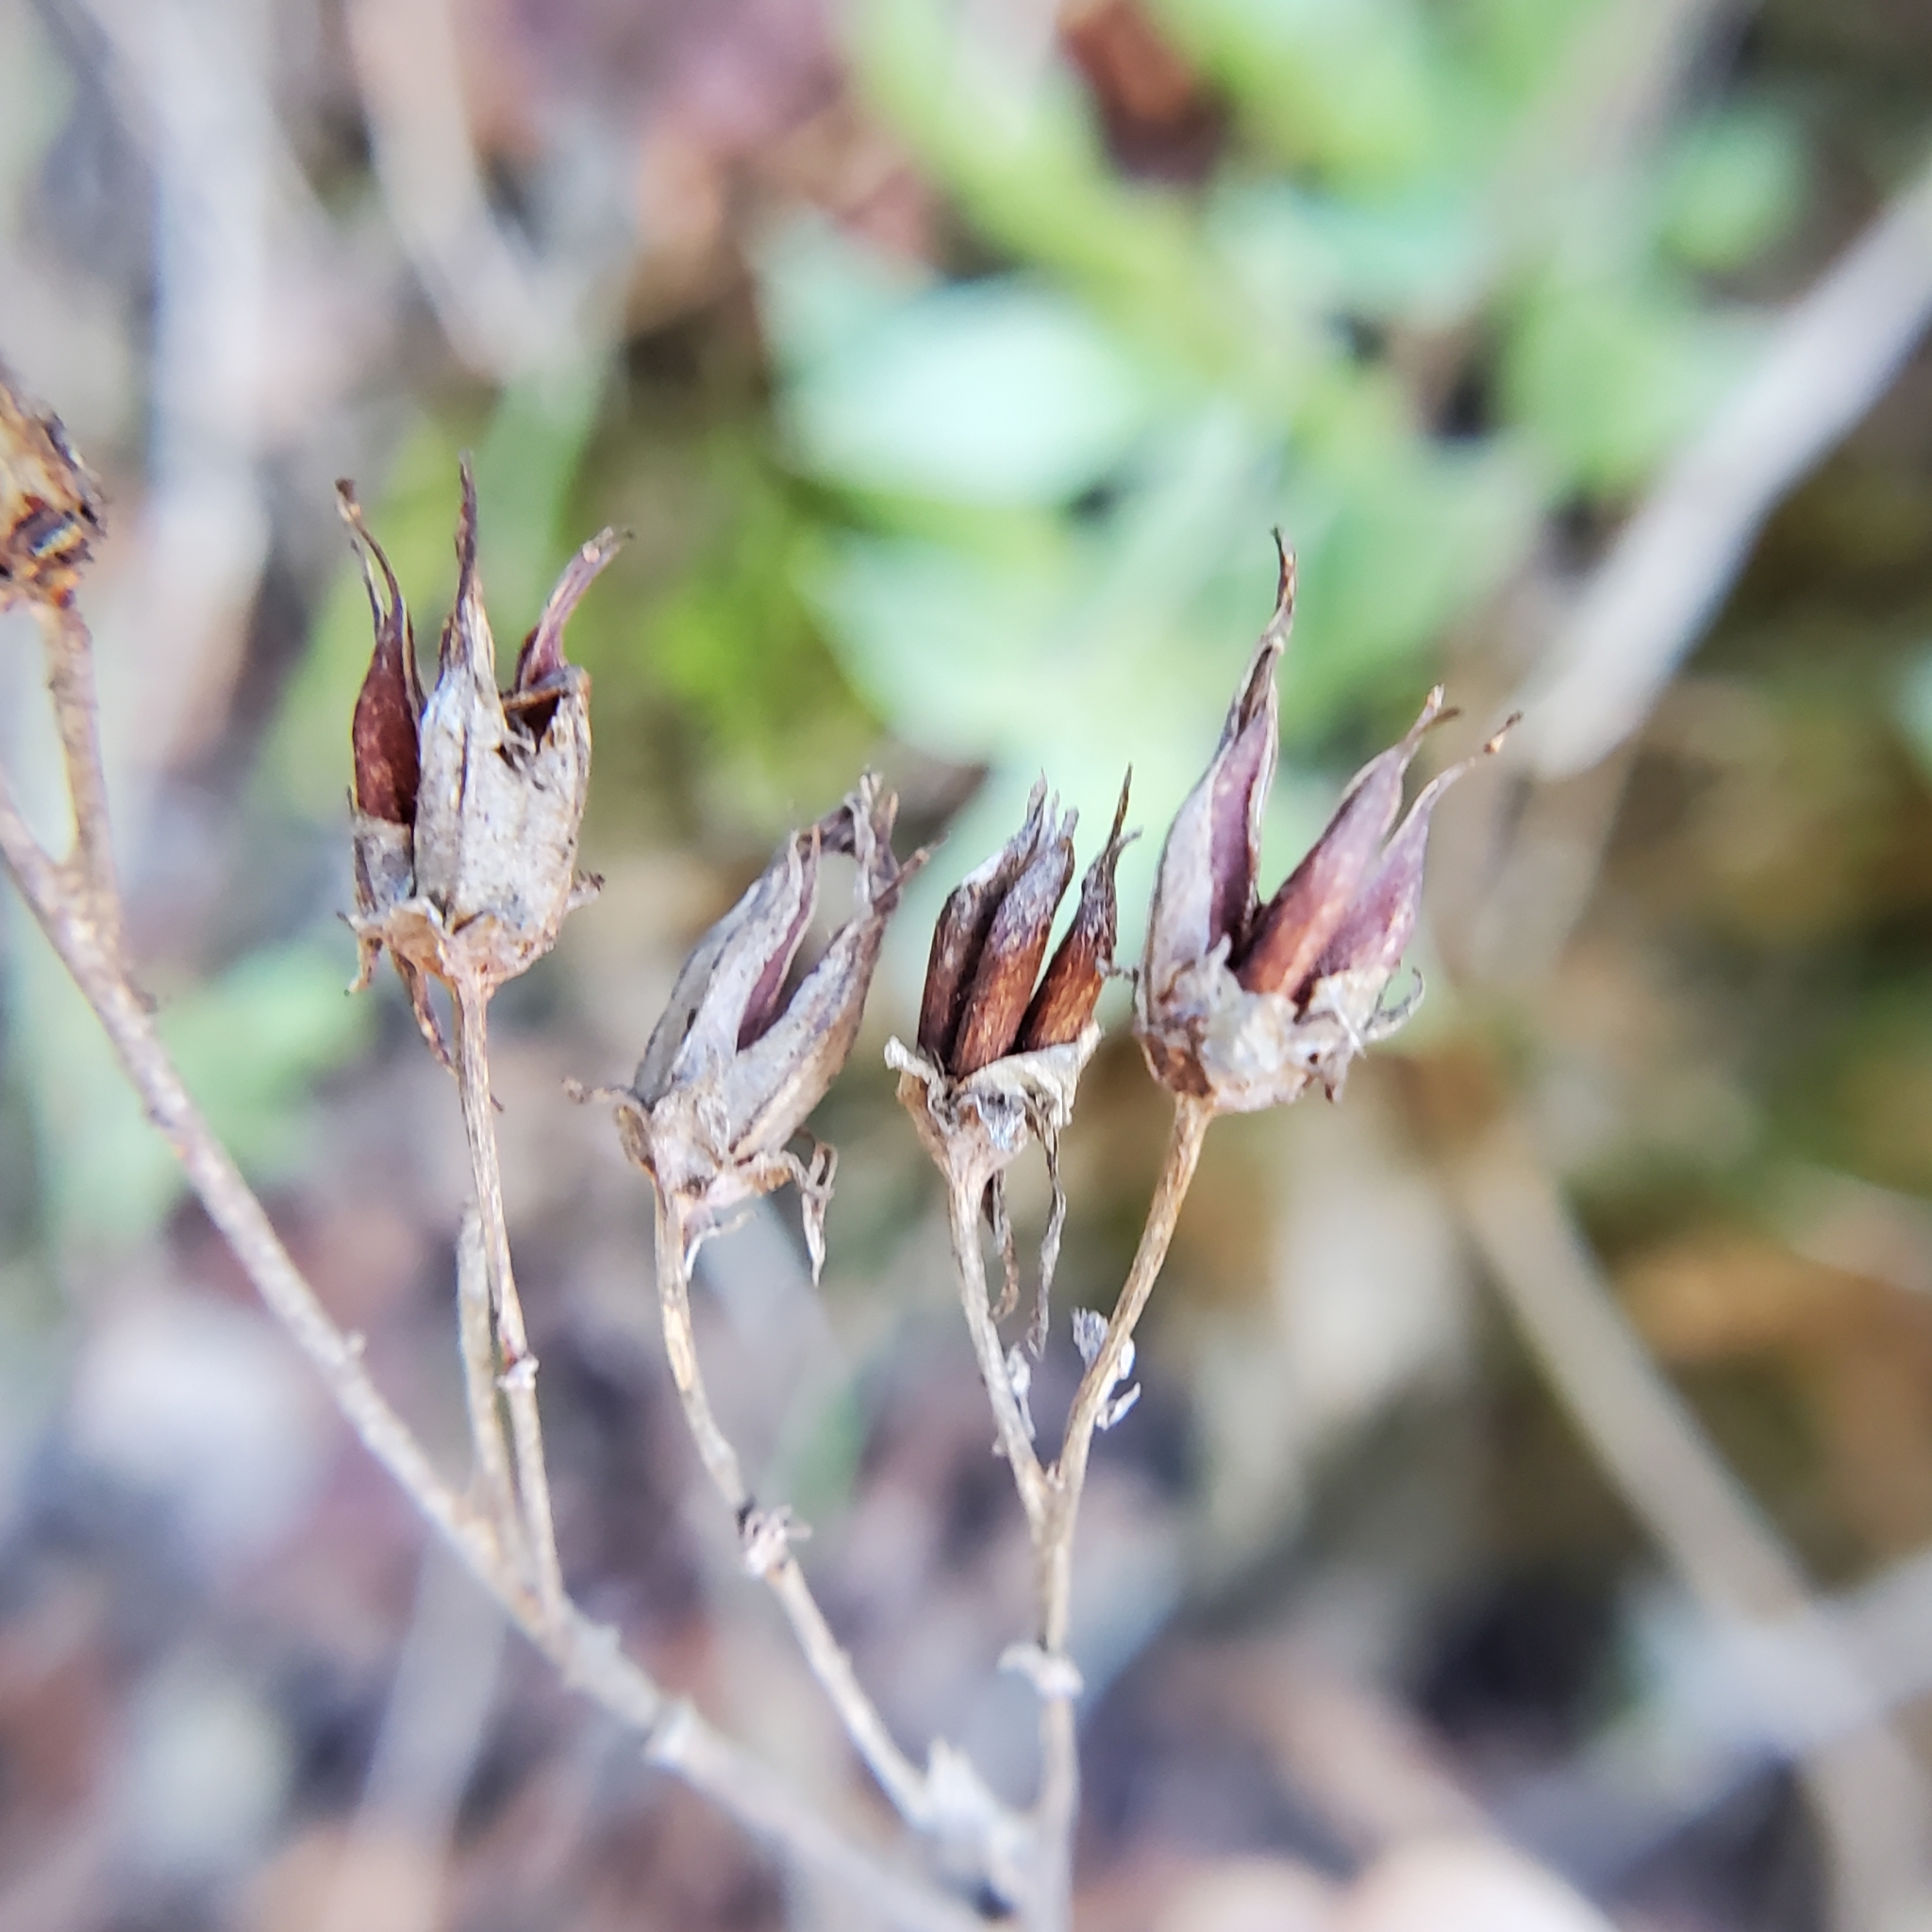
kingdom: Plantae
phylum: Tracheophyta
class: Magnoliopsida
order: Saxifragales
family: Crassulaceae
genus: Dudleya
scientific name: Dudleya lanceolata
